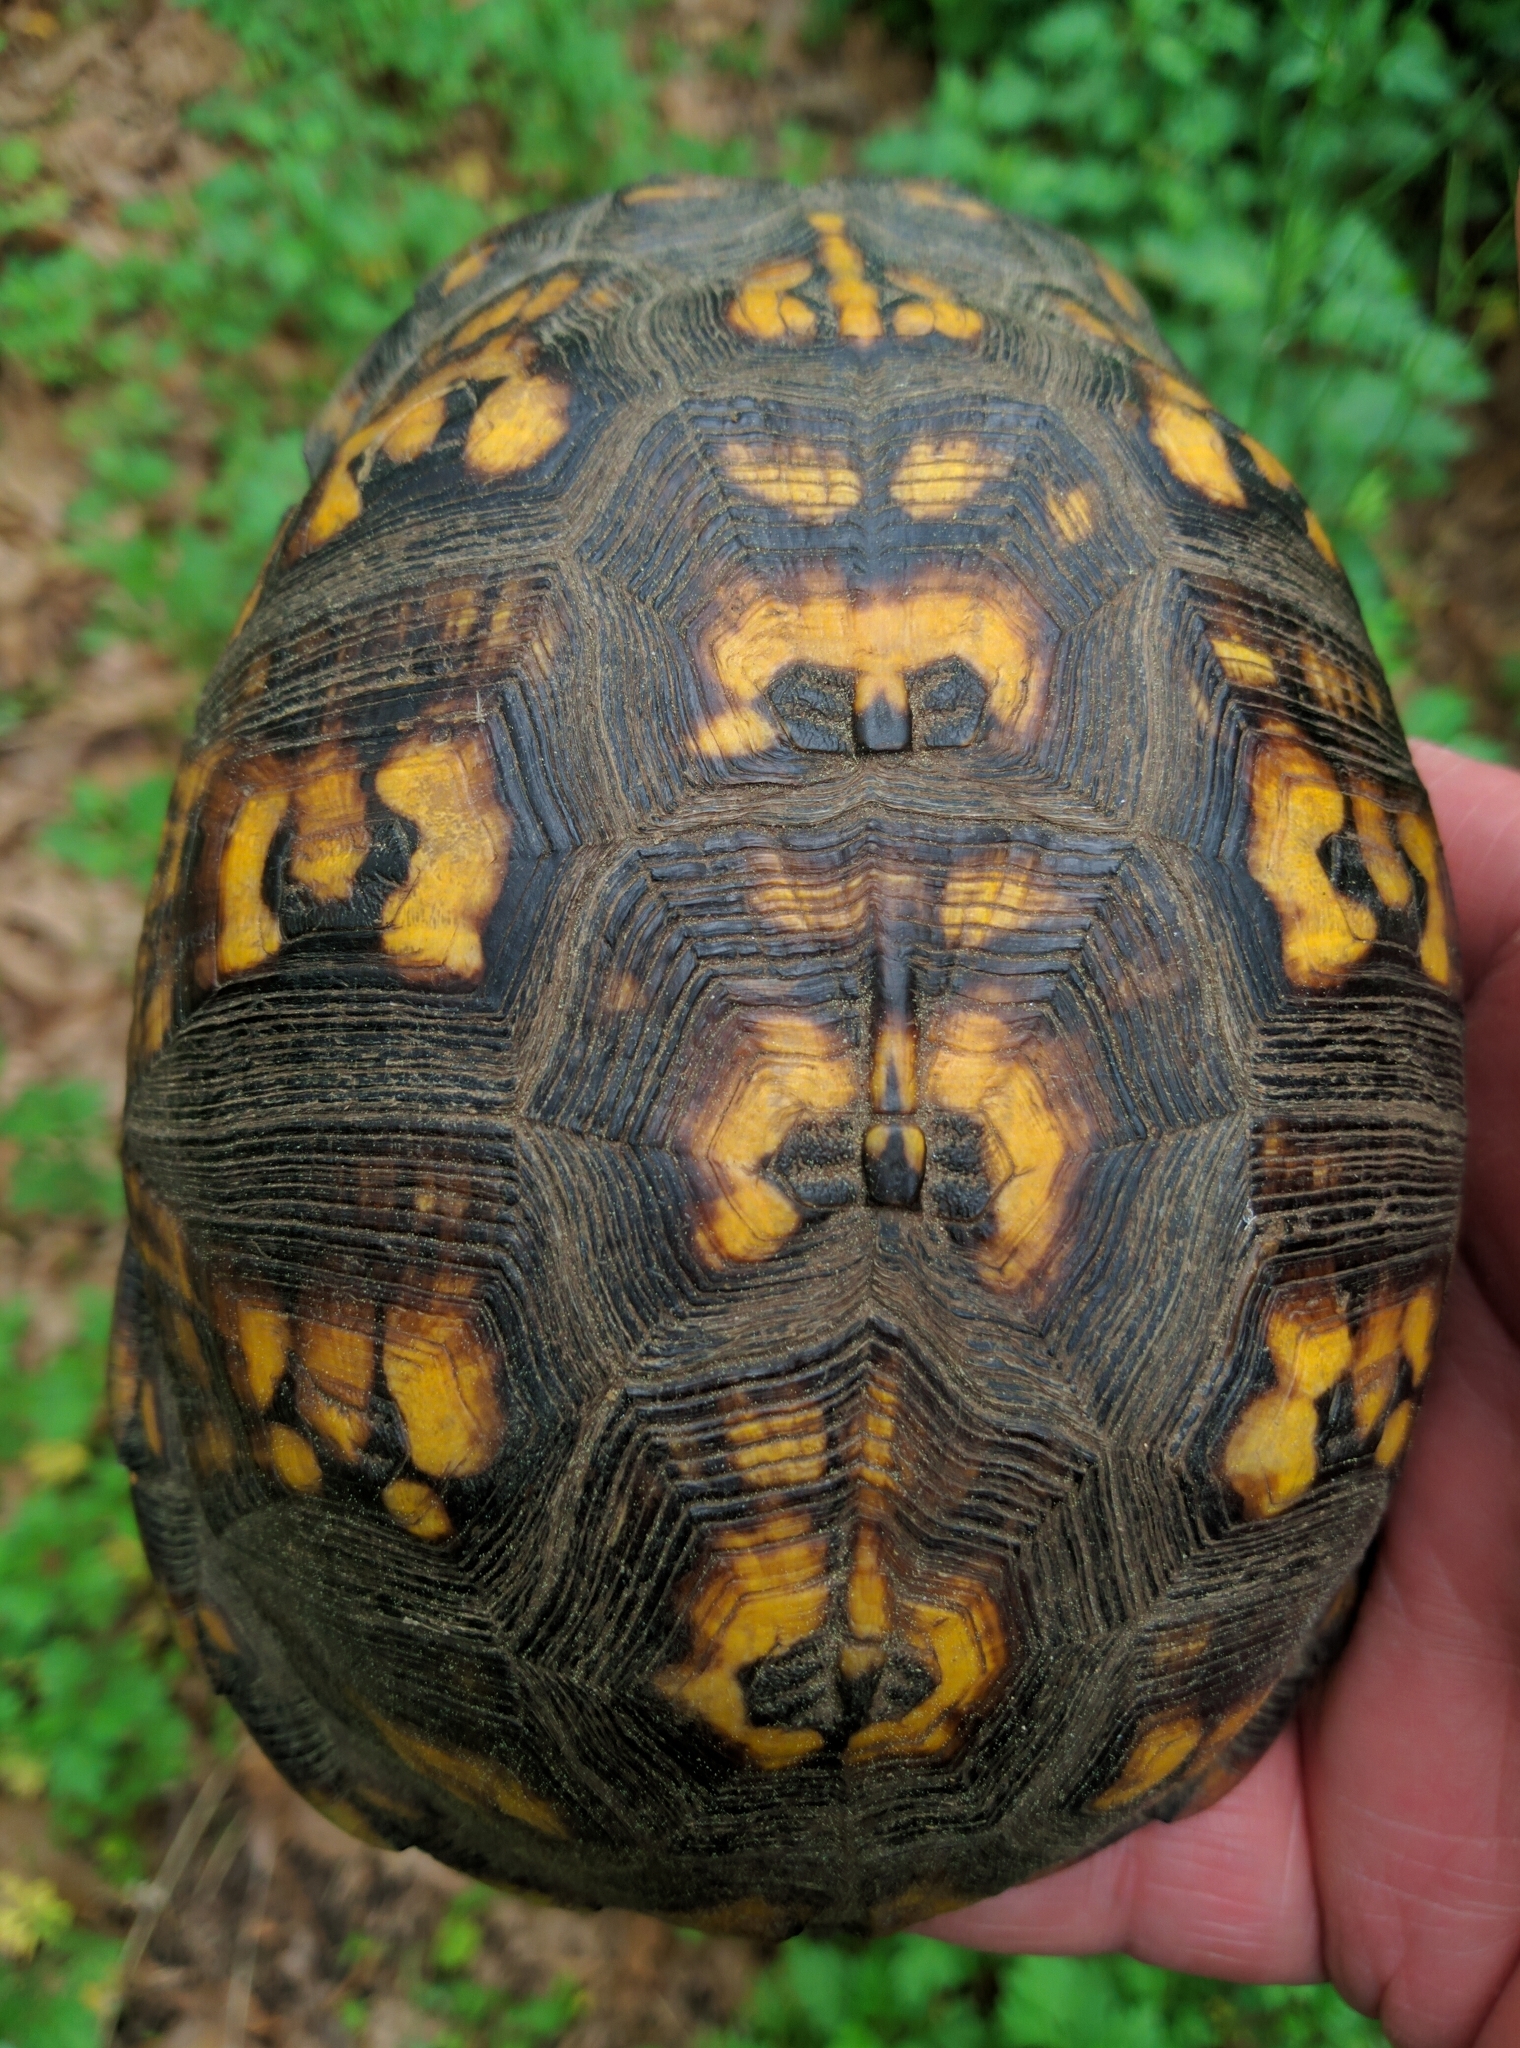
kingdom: Animalia
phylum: Chordata
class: Testudines
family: Emydidae
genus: Terrapene
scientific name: Terrapene carolina
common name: Common box turtle
